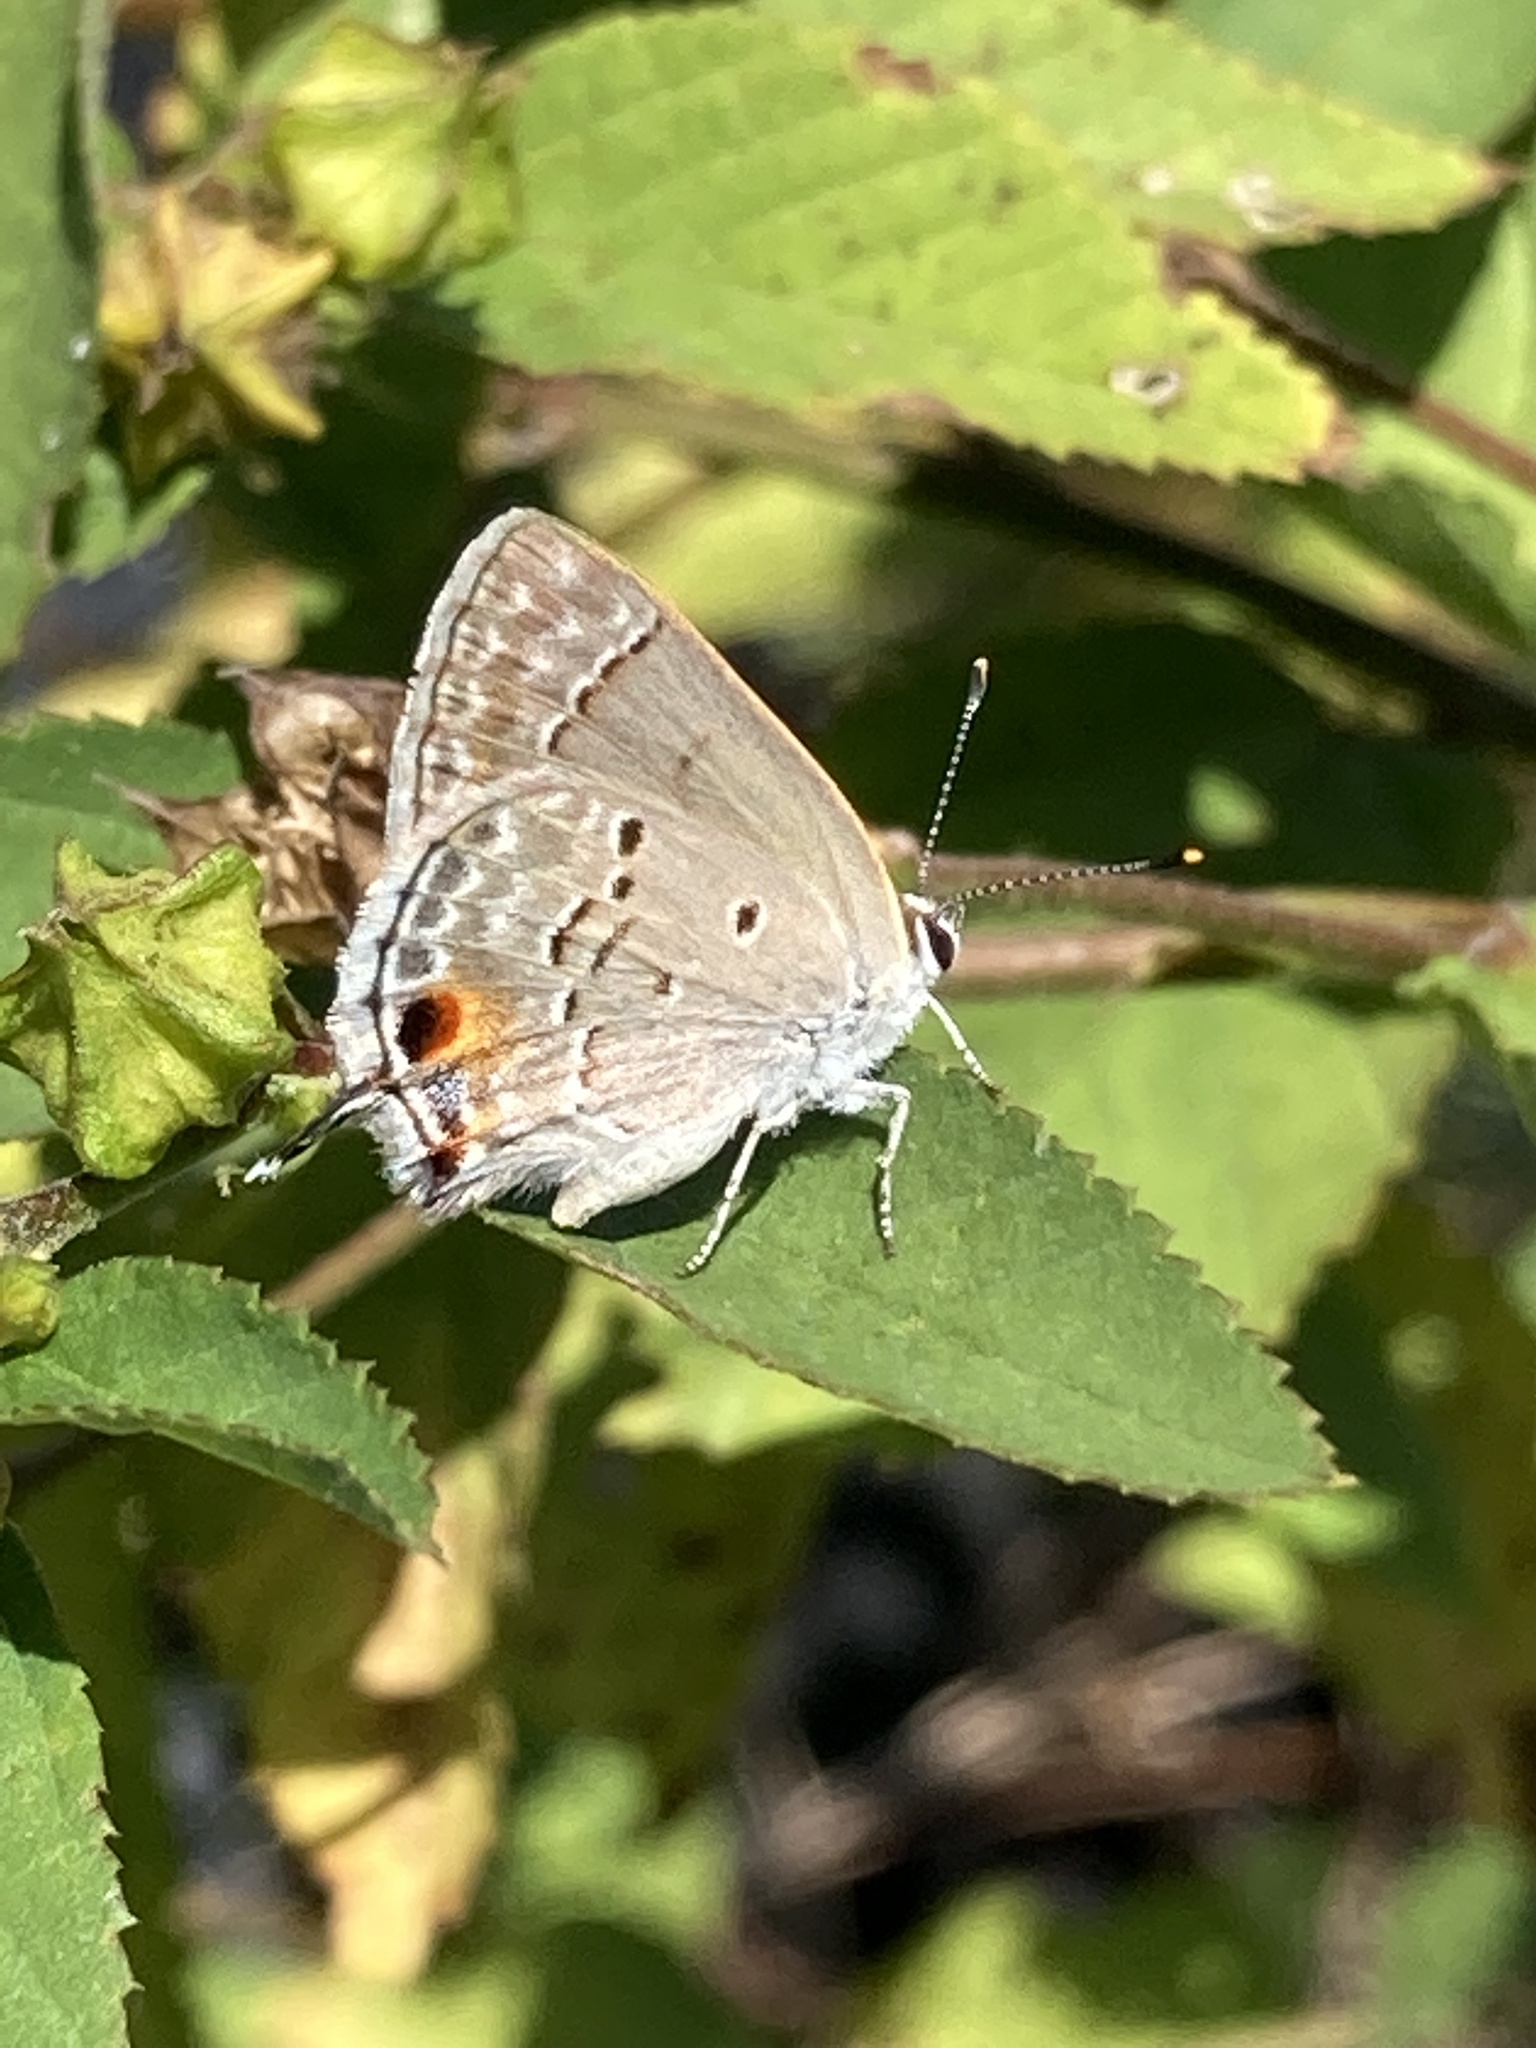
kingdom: Animalia
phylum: Arthropoda
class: Insecta
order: Lepidoptera
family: Lycaenidae
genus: Callicista
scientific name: Callicista columella
